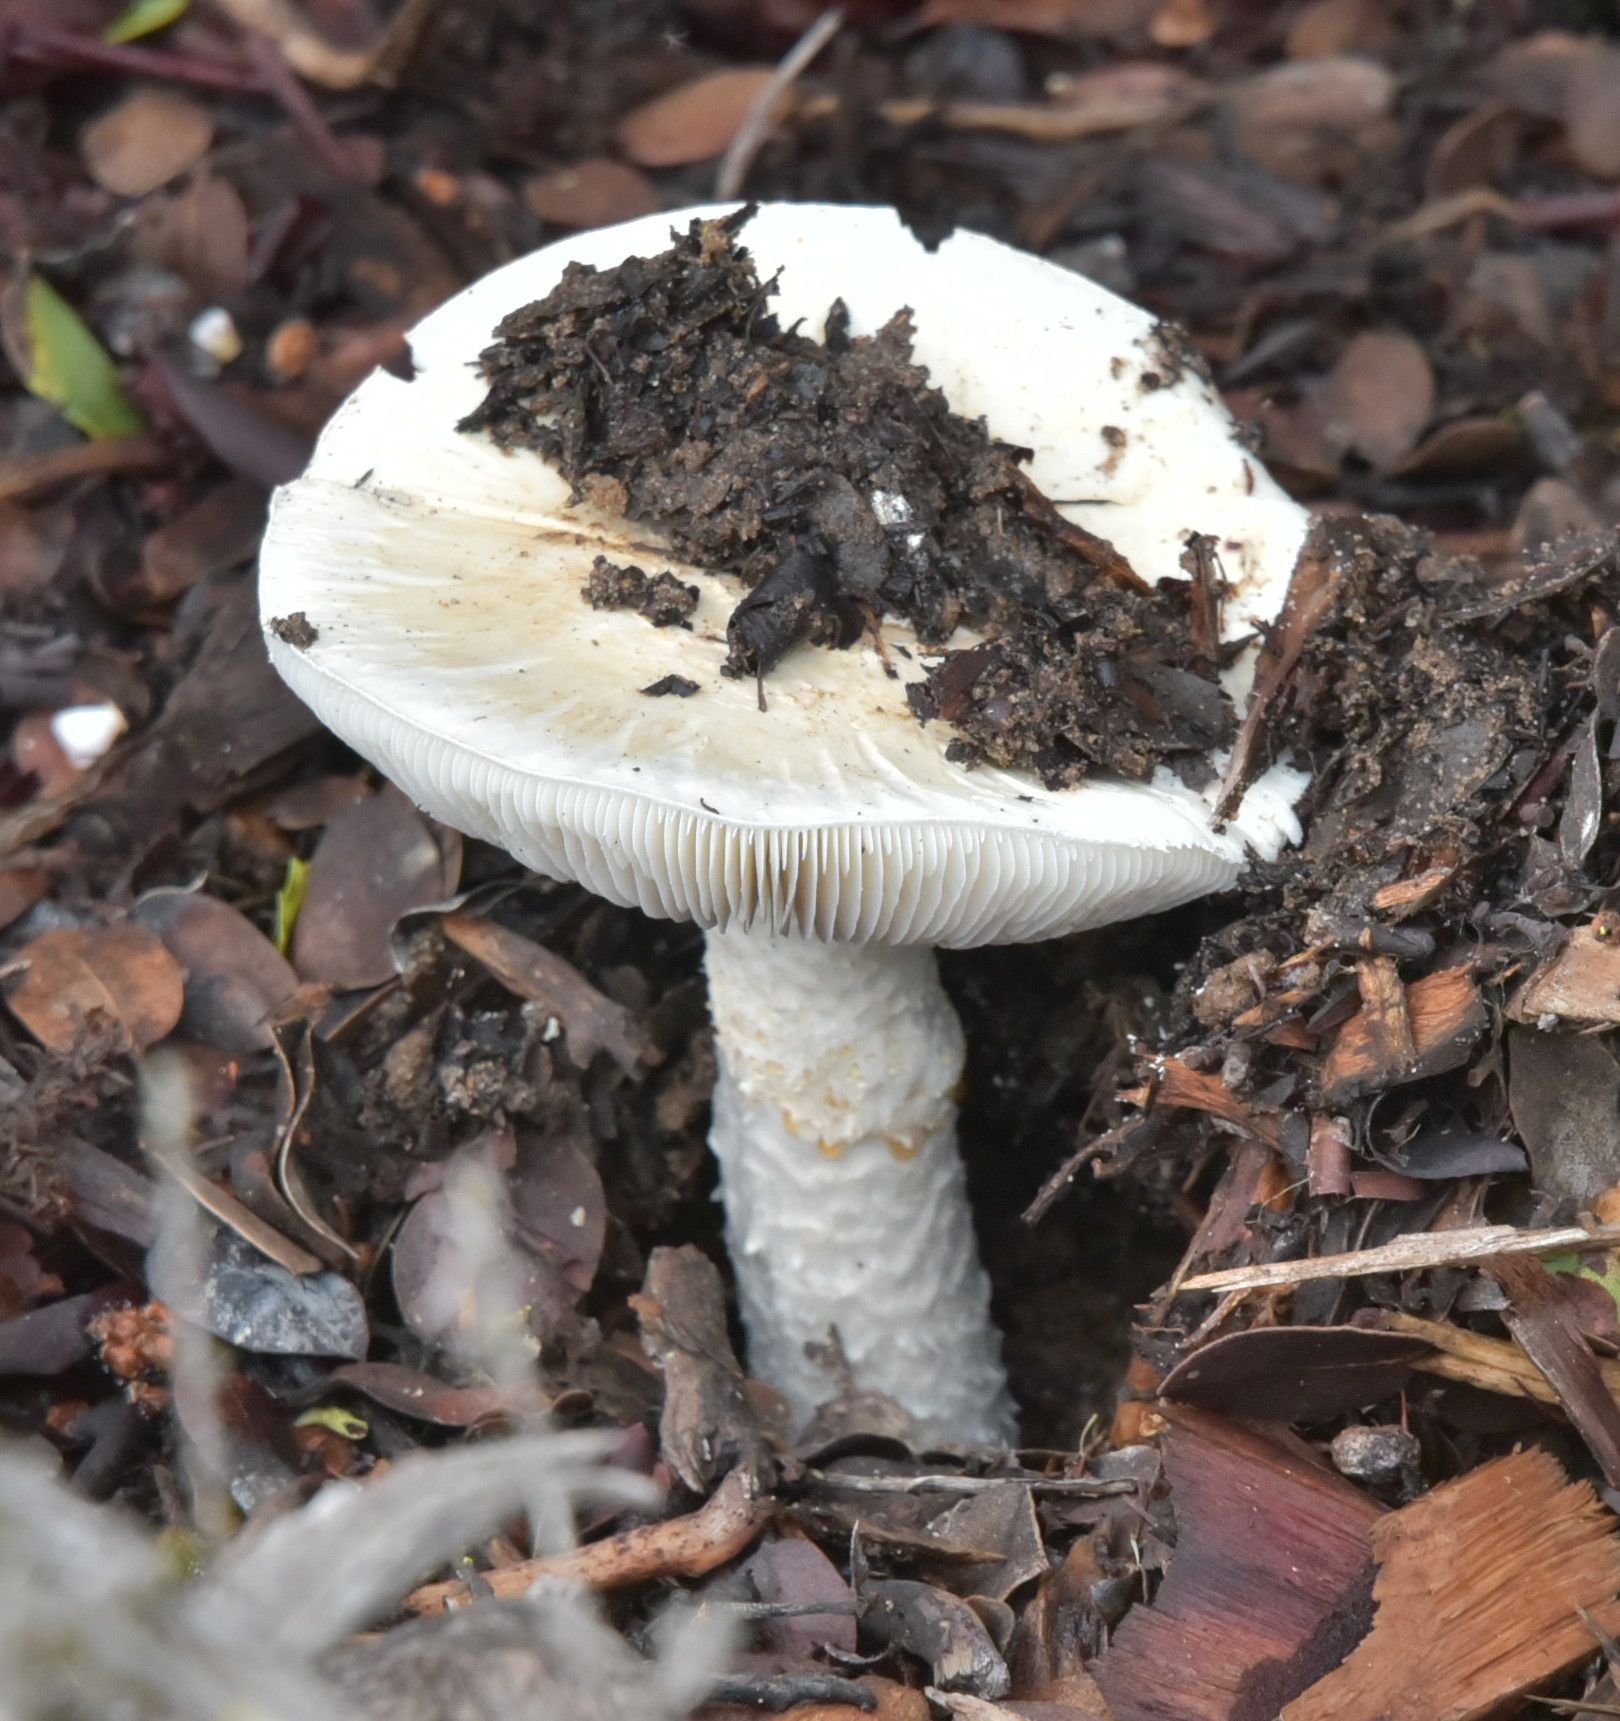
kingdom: Fungi
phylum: Basidiomycota
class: Agaricomycetes
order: Agaricales
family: Amanitaceae
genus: Amanita
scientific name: Amanita ocreata
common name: Western destroying angel
